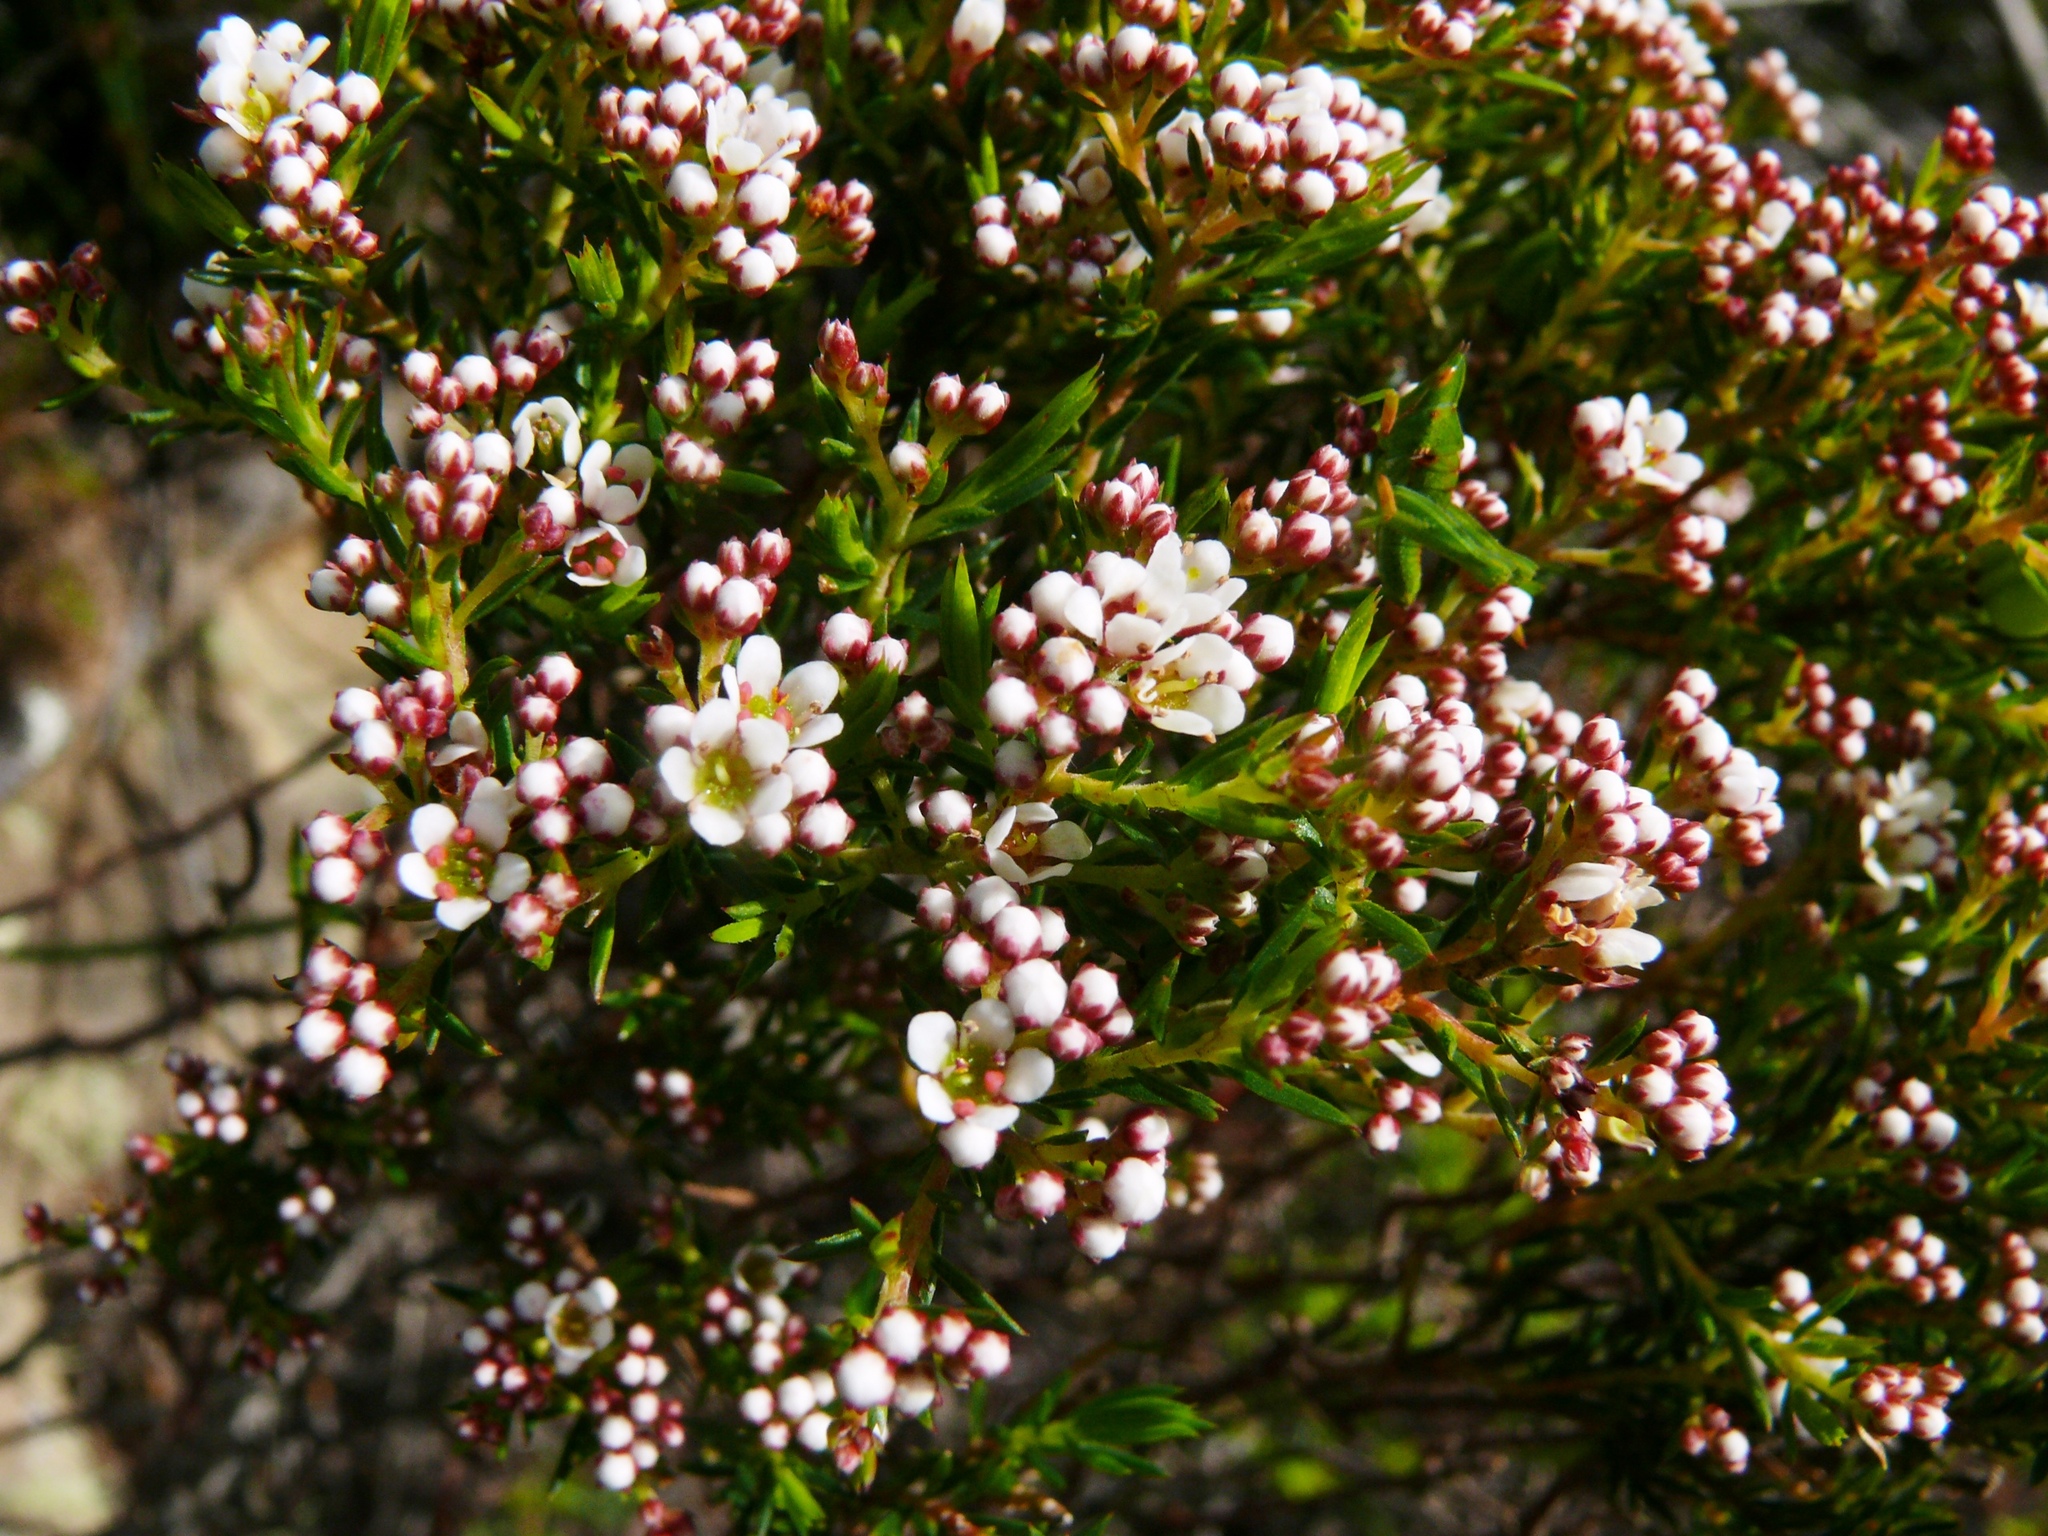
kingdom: Plantae
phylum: Tracheophyta
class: Magnoliopsida
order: Sapindales
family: Rutaceae
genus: Diosma
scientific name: Diosma hirsuta
